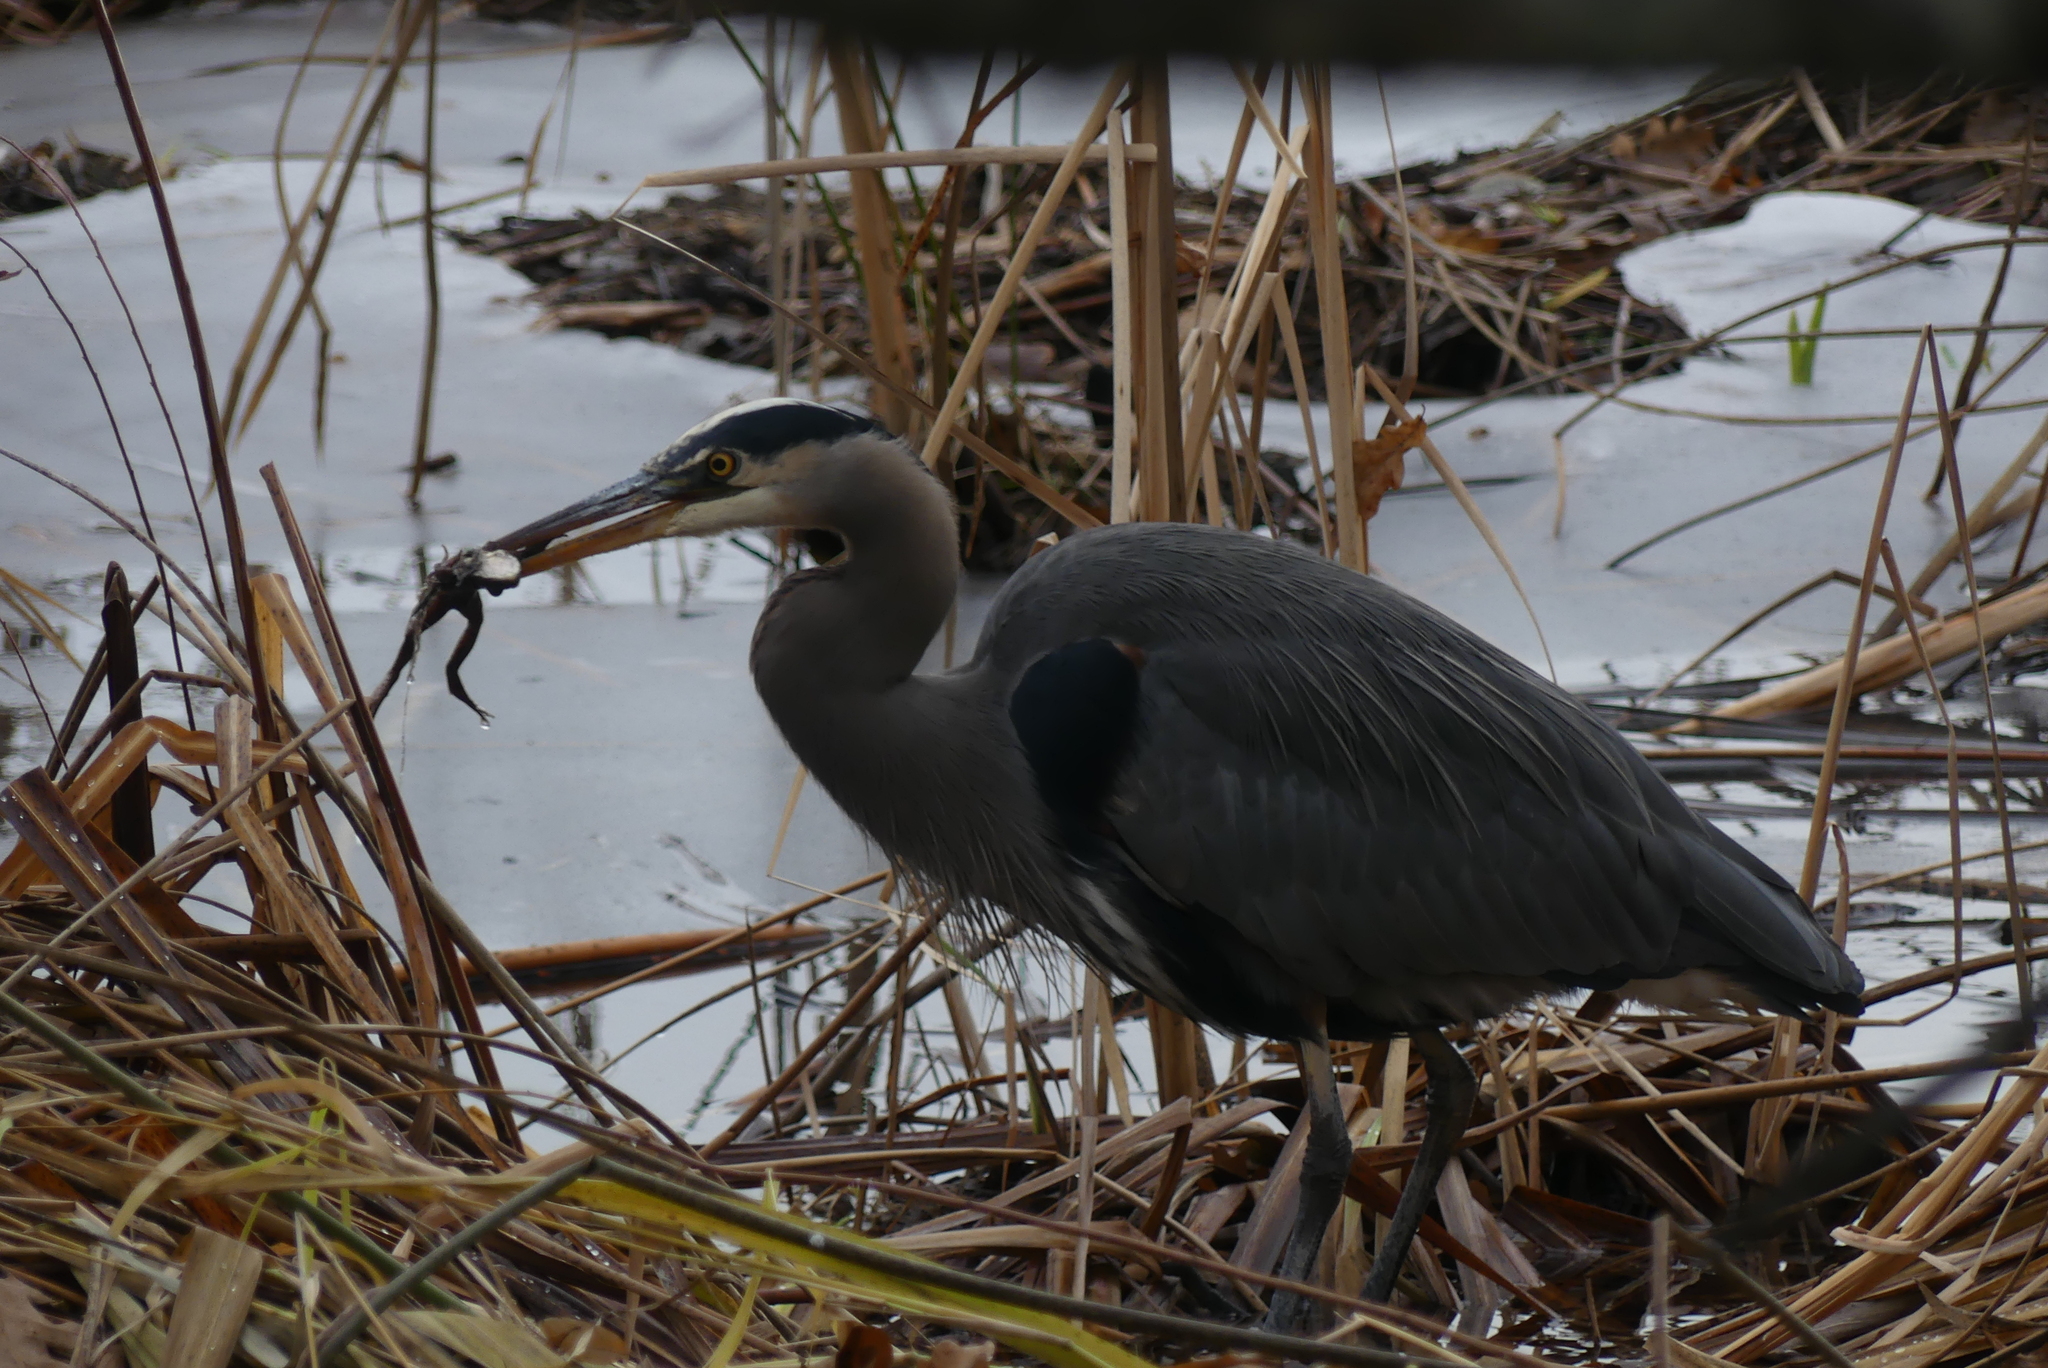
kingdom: Animalia
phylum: Chordata
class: Aves
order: Pelecaniformes
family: Ardeidae
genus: Ardea
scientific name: Ardea herodias
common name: Great blue heron
